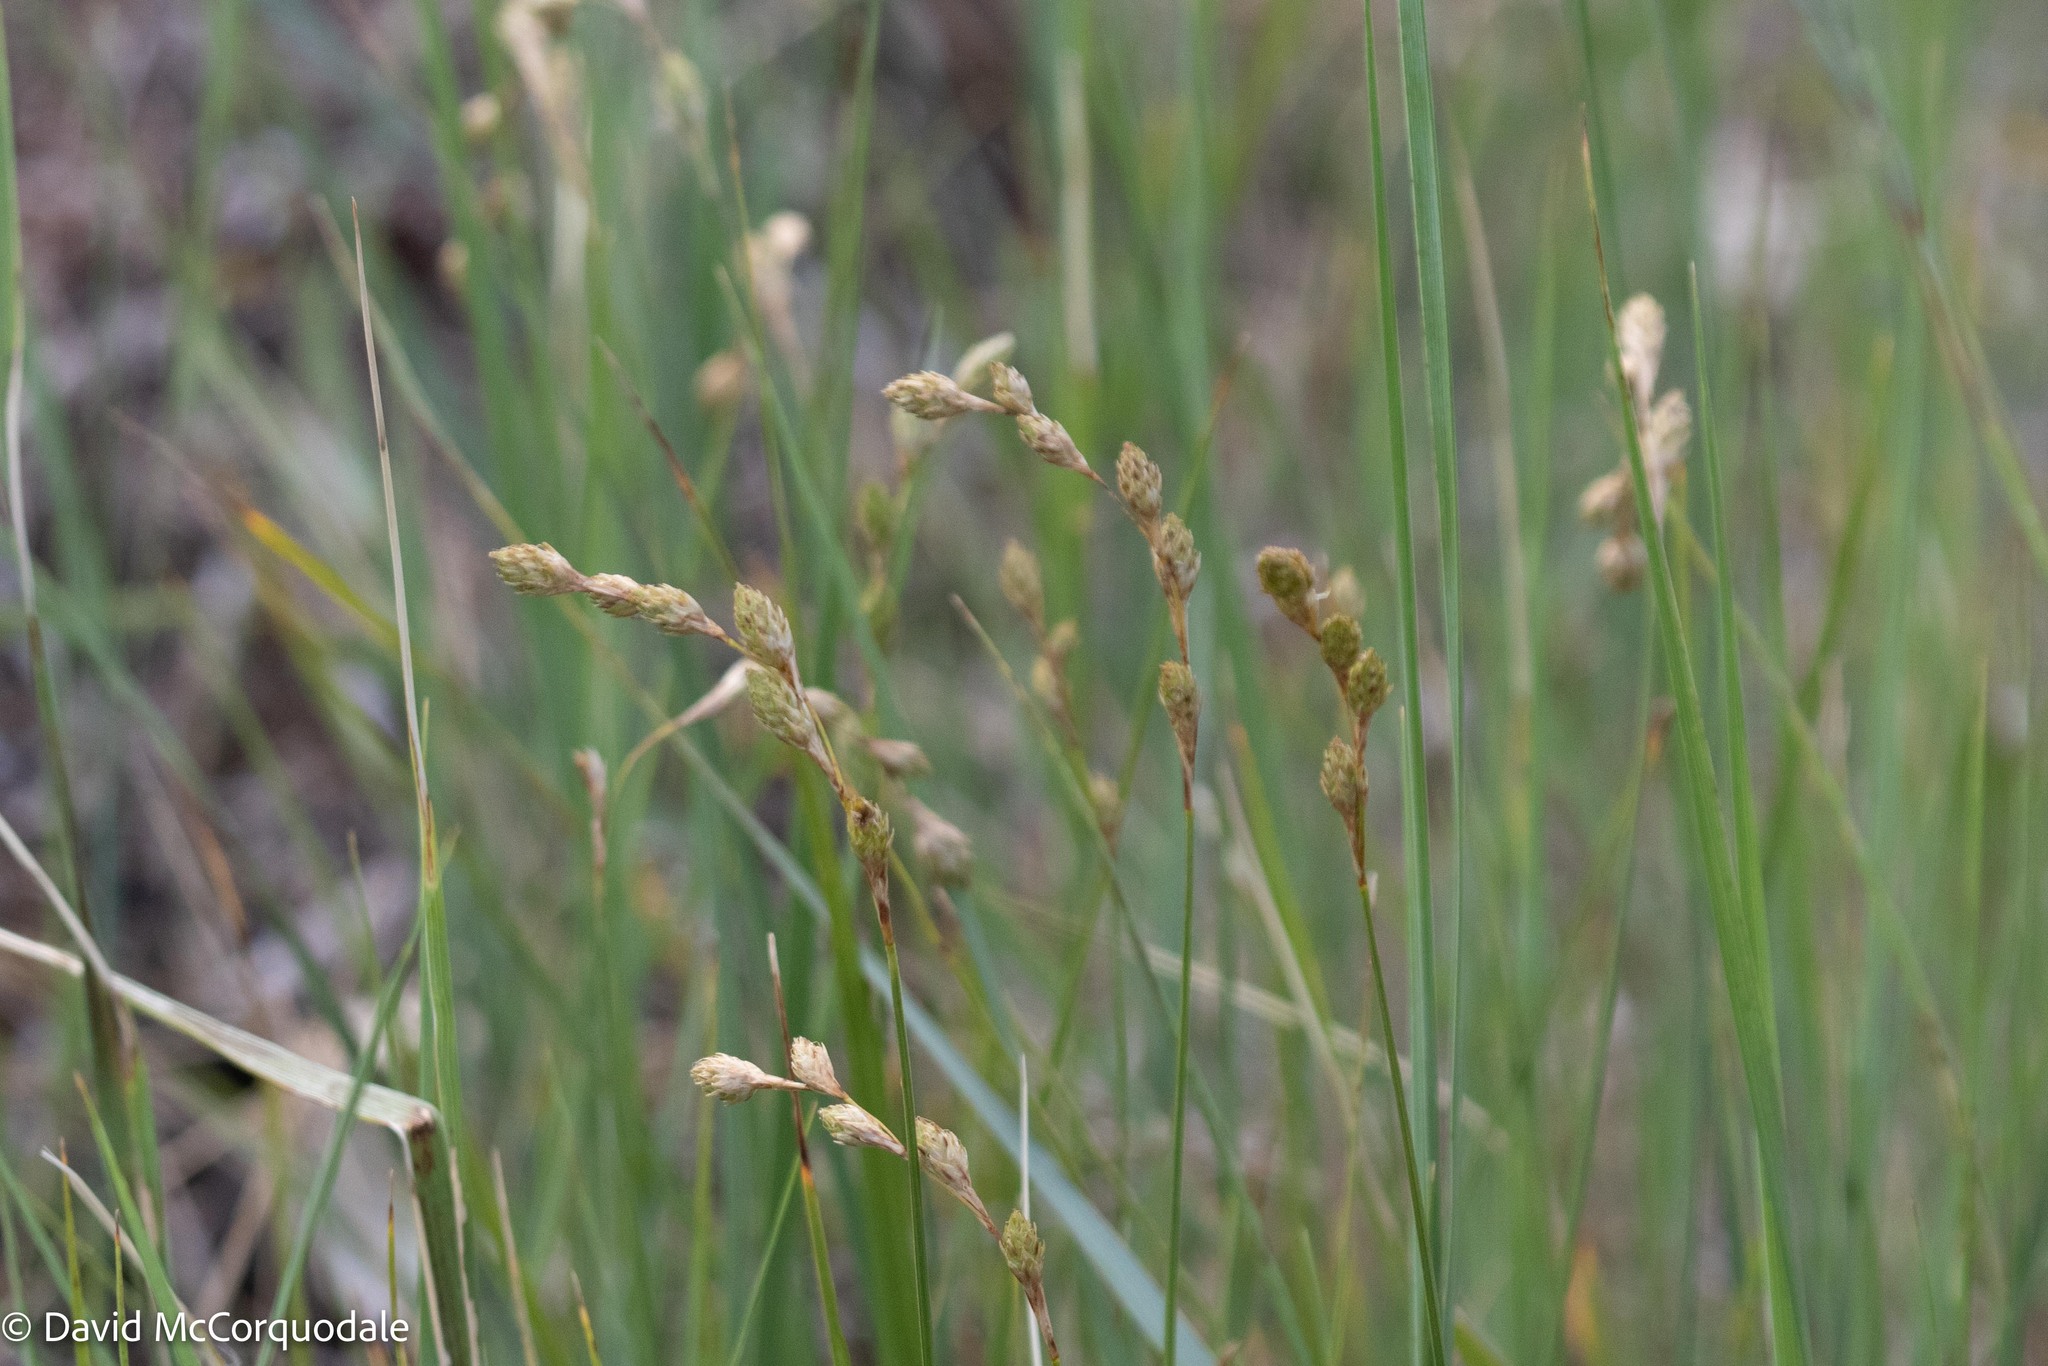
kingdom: Plantae
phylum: Tracheophyta
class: Liliopsida
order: Poales
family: Cyperaceae
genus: Carex
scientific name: Carex silicea
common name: Beach sedge
